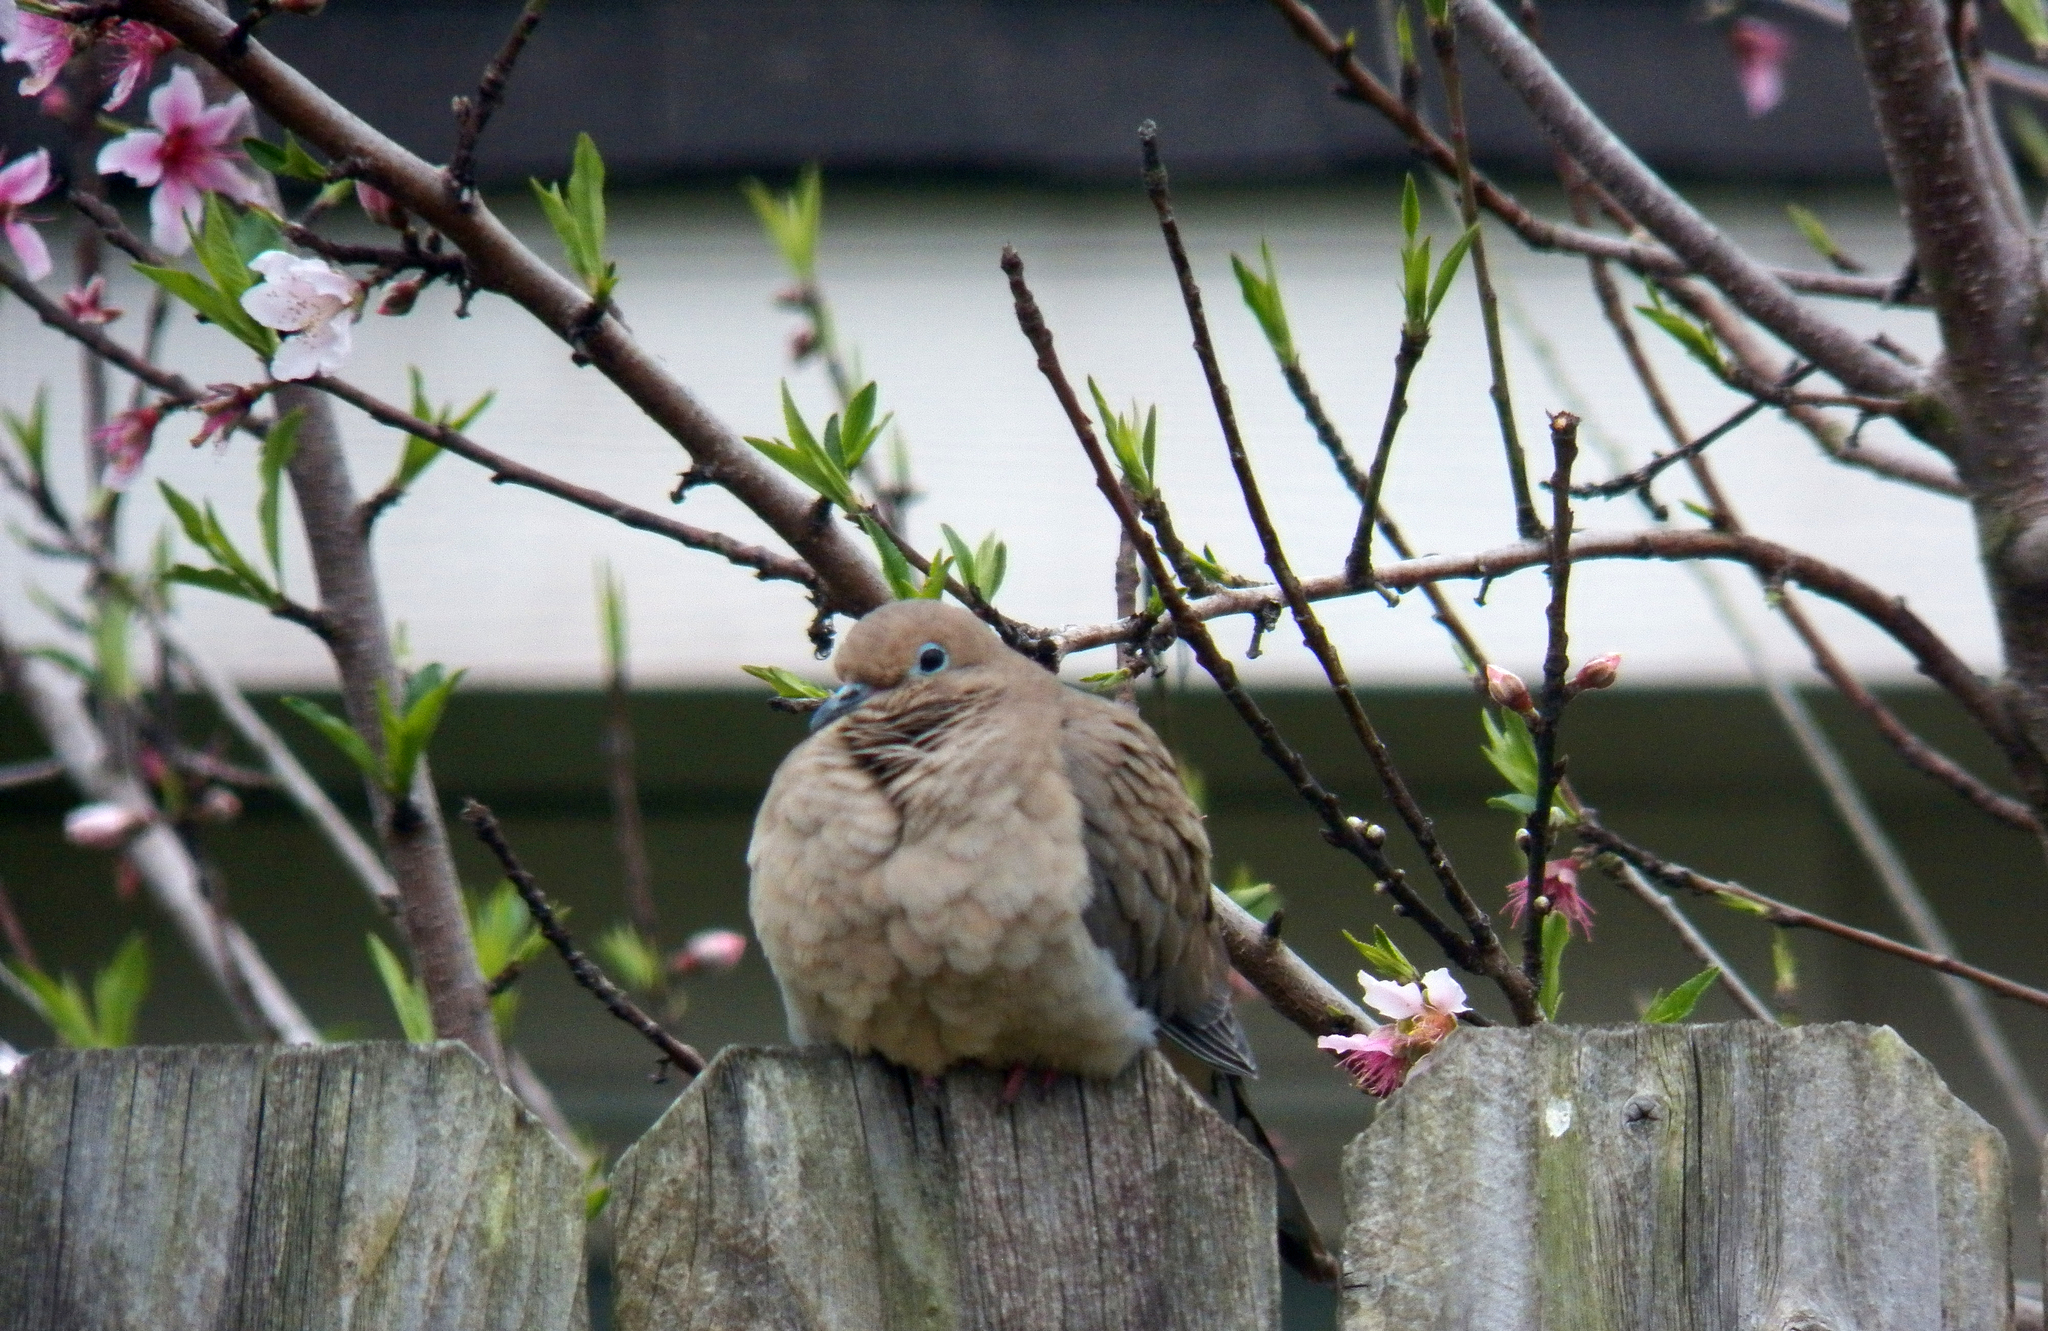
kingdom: Animalia
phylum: Chordata
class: Aves
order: Columbiformes
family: Columbidae
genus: Zenaida
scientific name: Zenaida macroura
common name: Mourning dove
